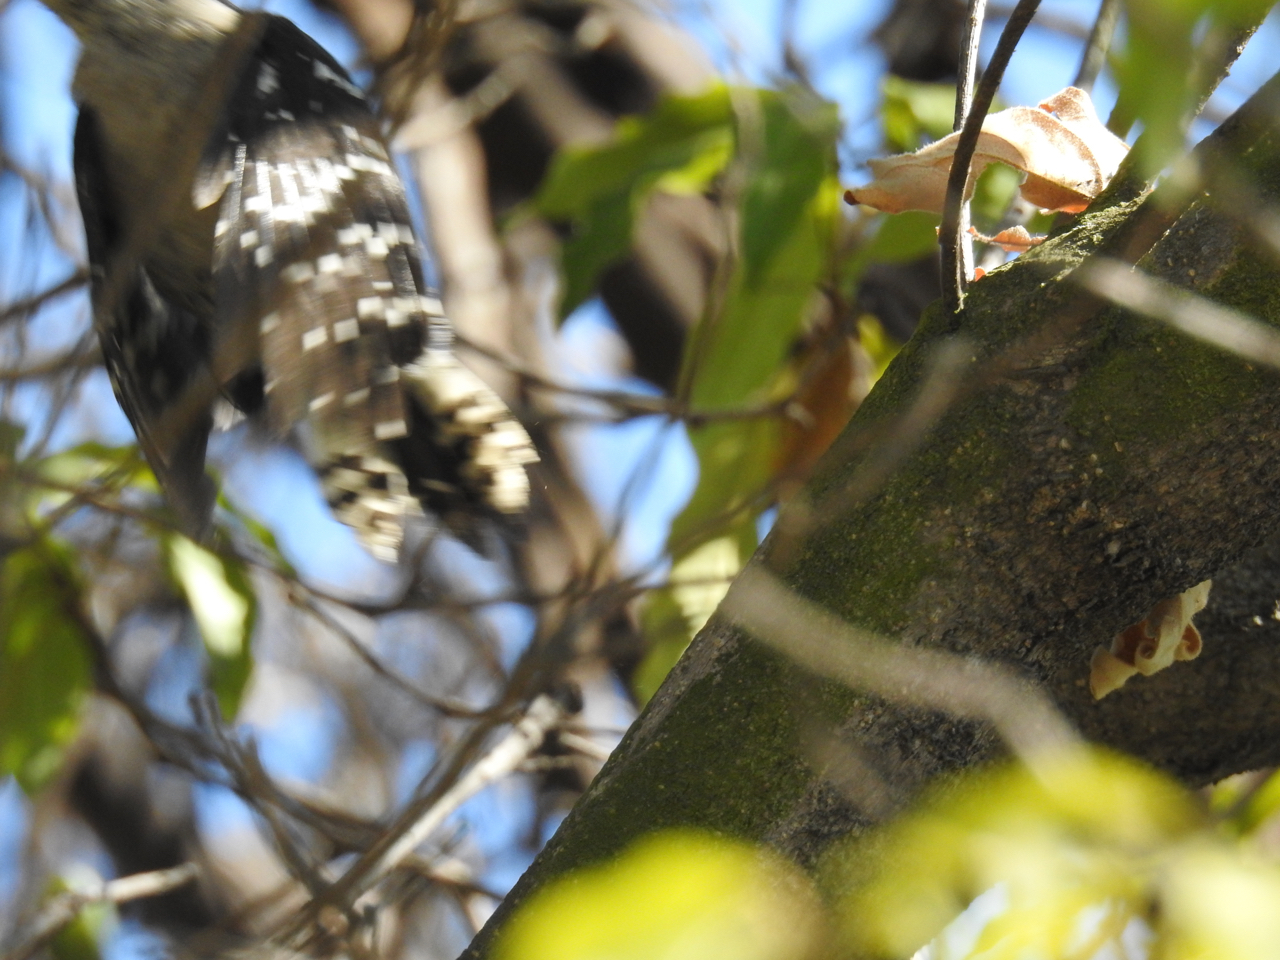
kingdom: Animalia
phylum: Chordata
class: Aves
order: Piciformes
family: Picidae
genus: Dryobates
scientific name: Dryobates pubescens
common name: Downy woodpecker
